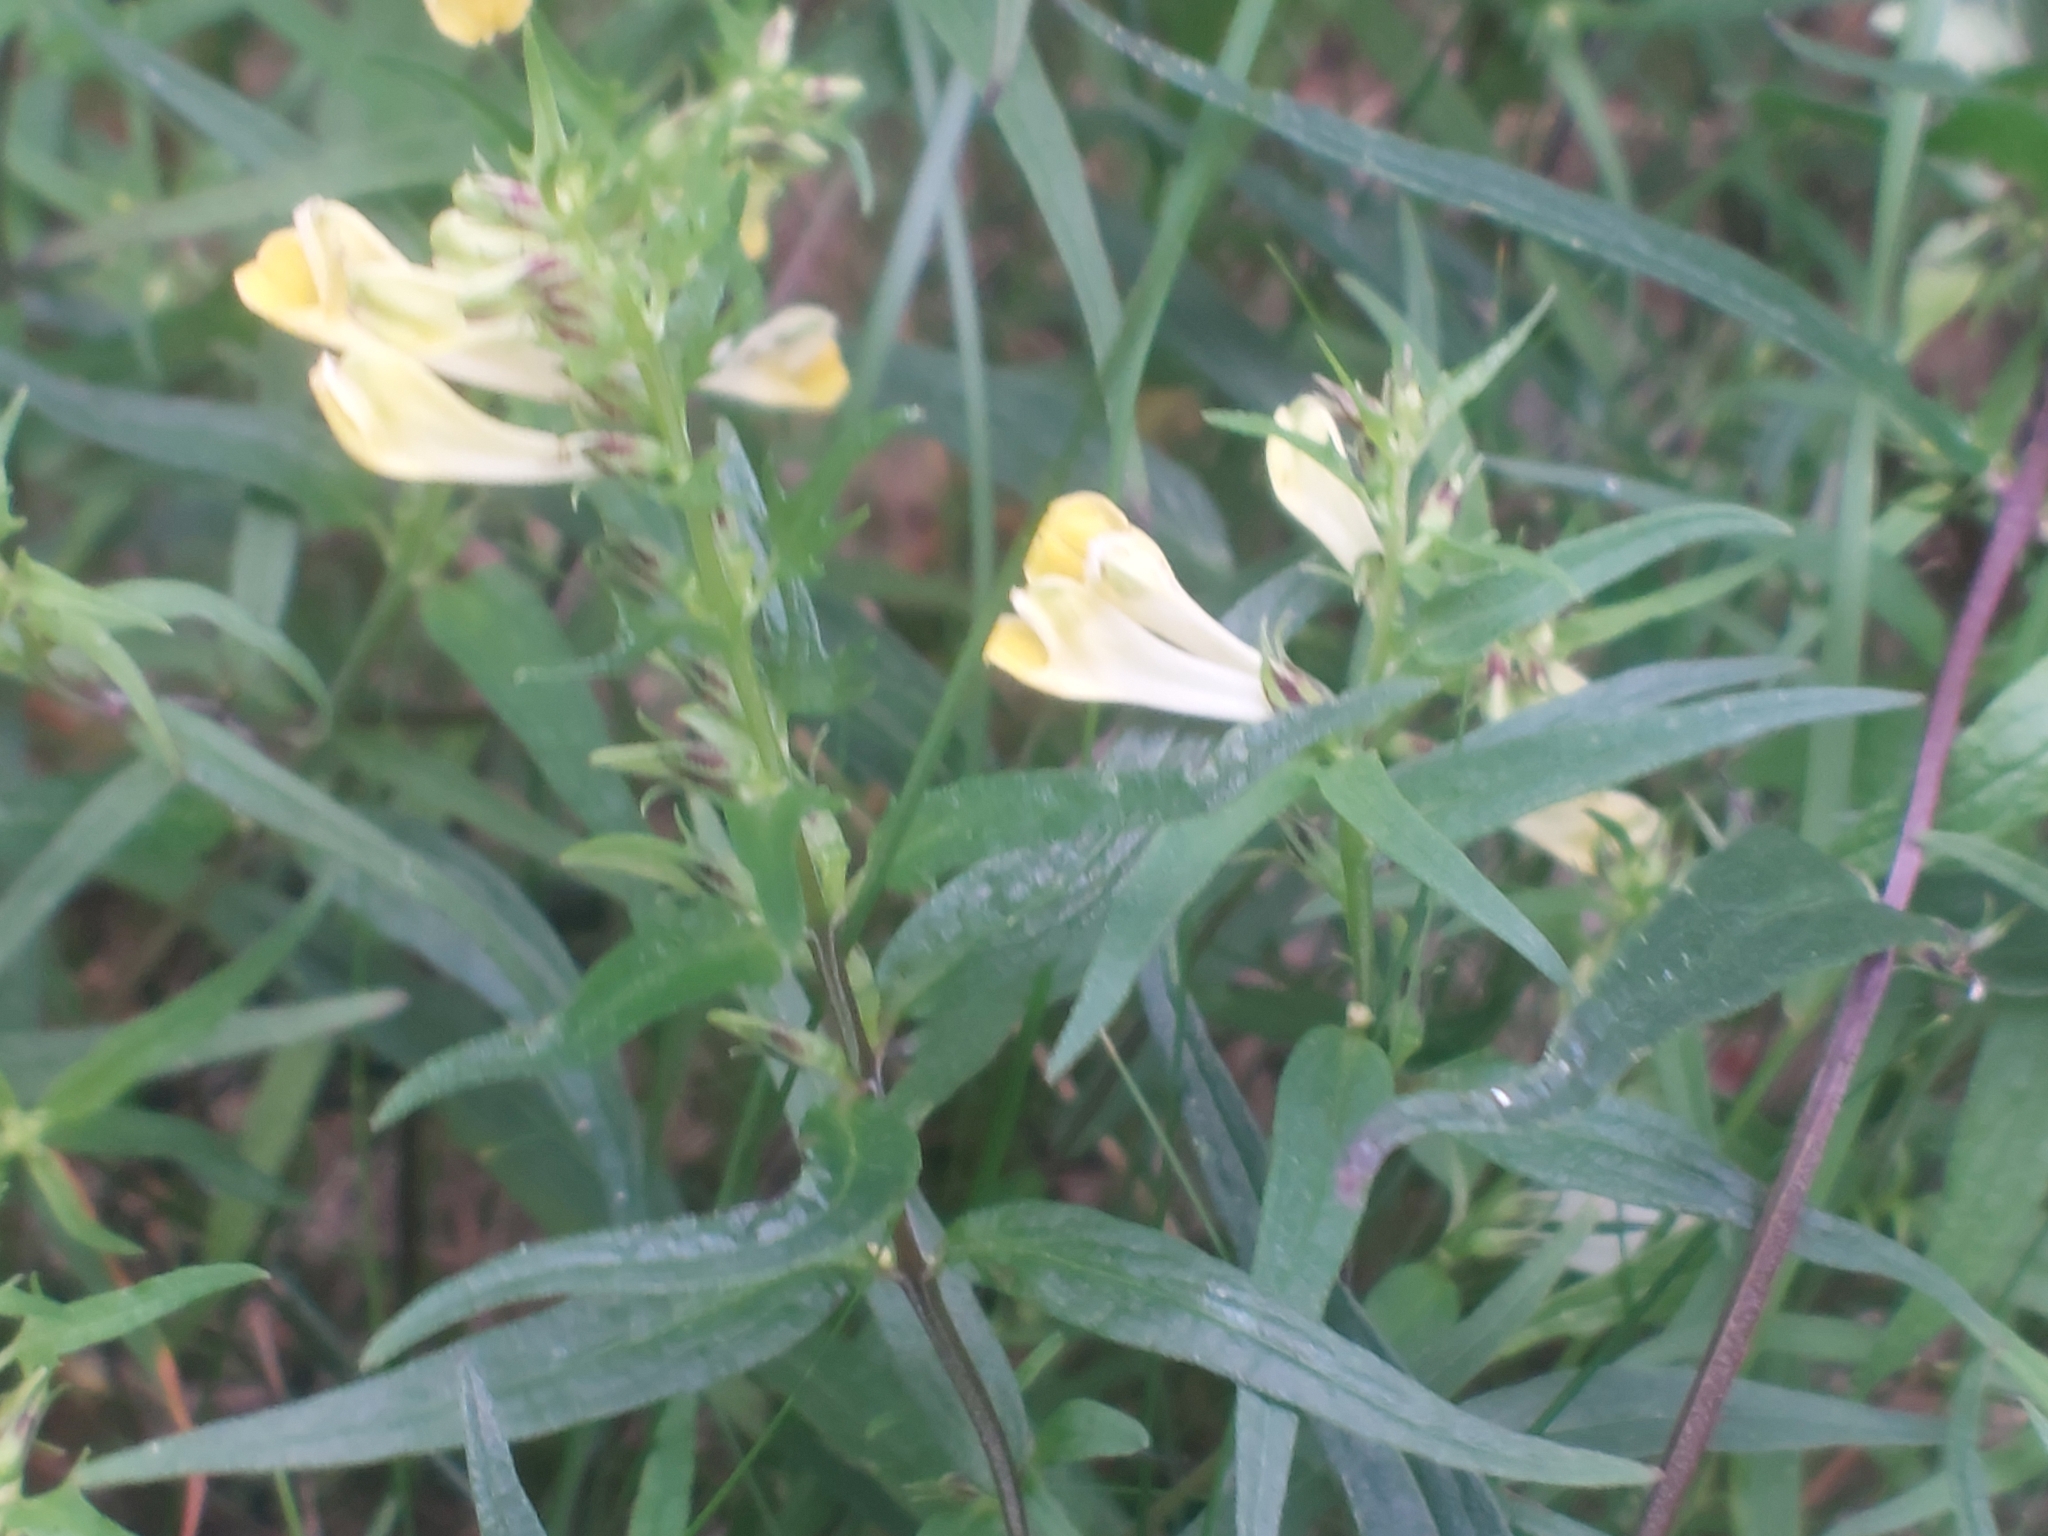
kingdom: Plantae
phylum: Tracheophyta
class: Magnoliopsida
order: Lamiales
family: Orobanchaceae
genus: Melampyrum
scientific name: Melampyrum pratense
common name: Common cow-wheat
